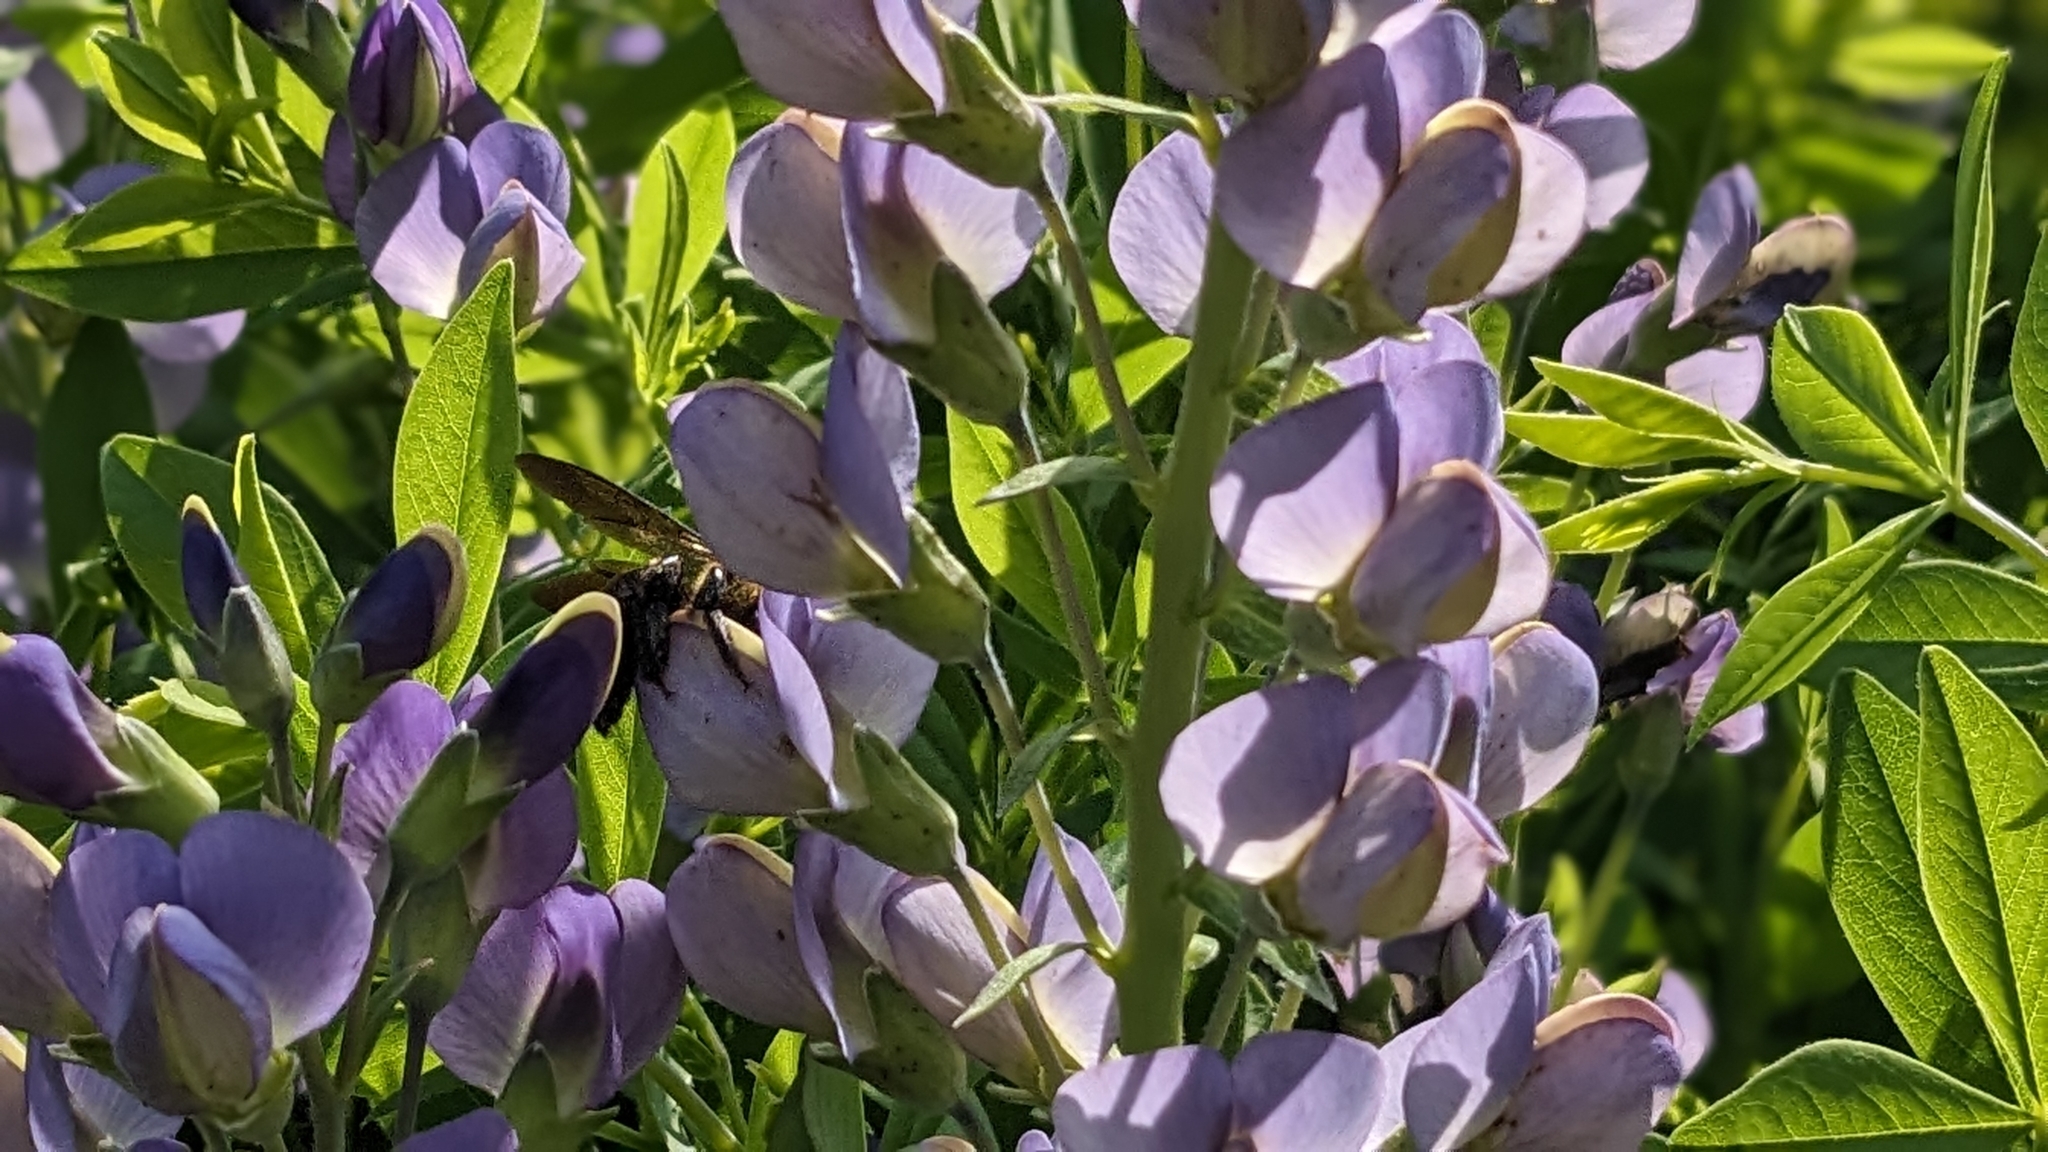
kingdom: Plantae
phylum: Tracheophyta
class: Magnoliopsida
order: Fabales
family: Fabaceae
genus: Baptisia
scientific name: Baptisia australis
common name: Blue false indigo
